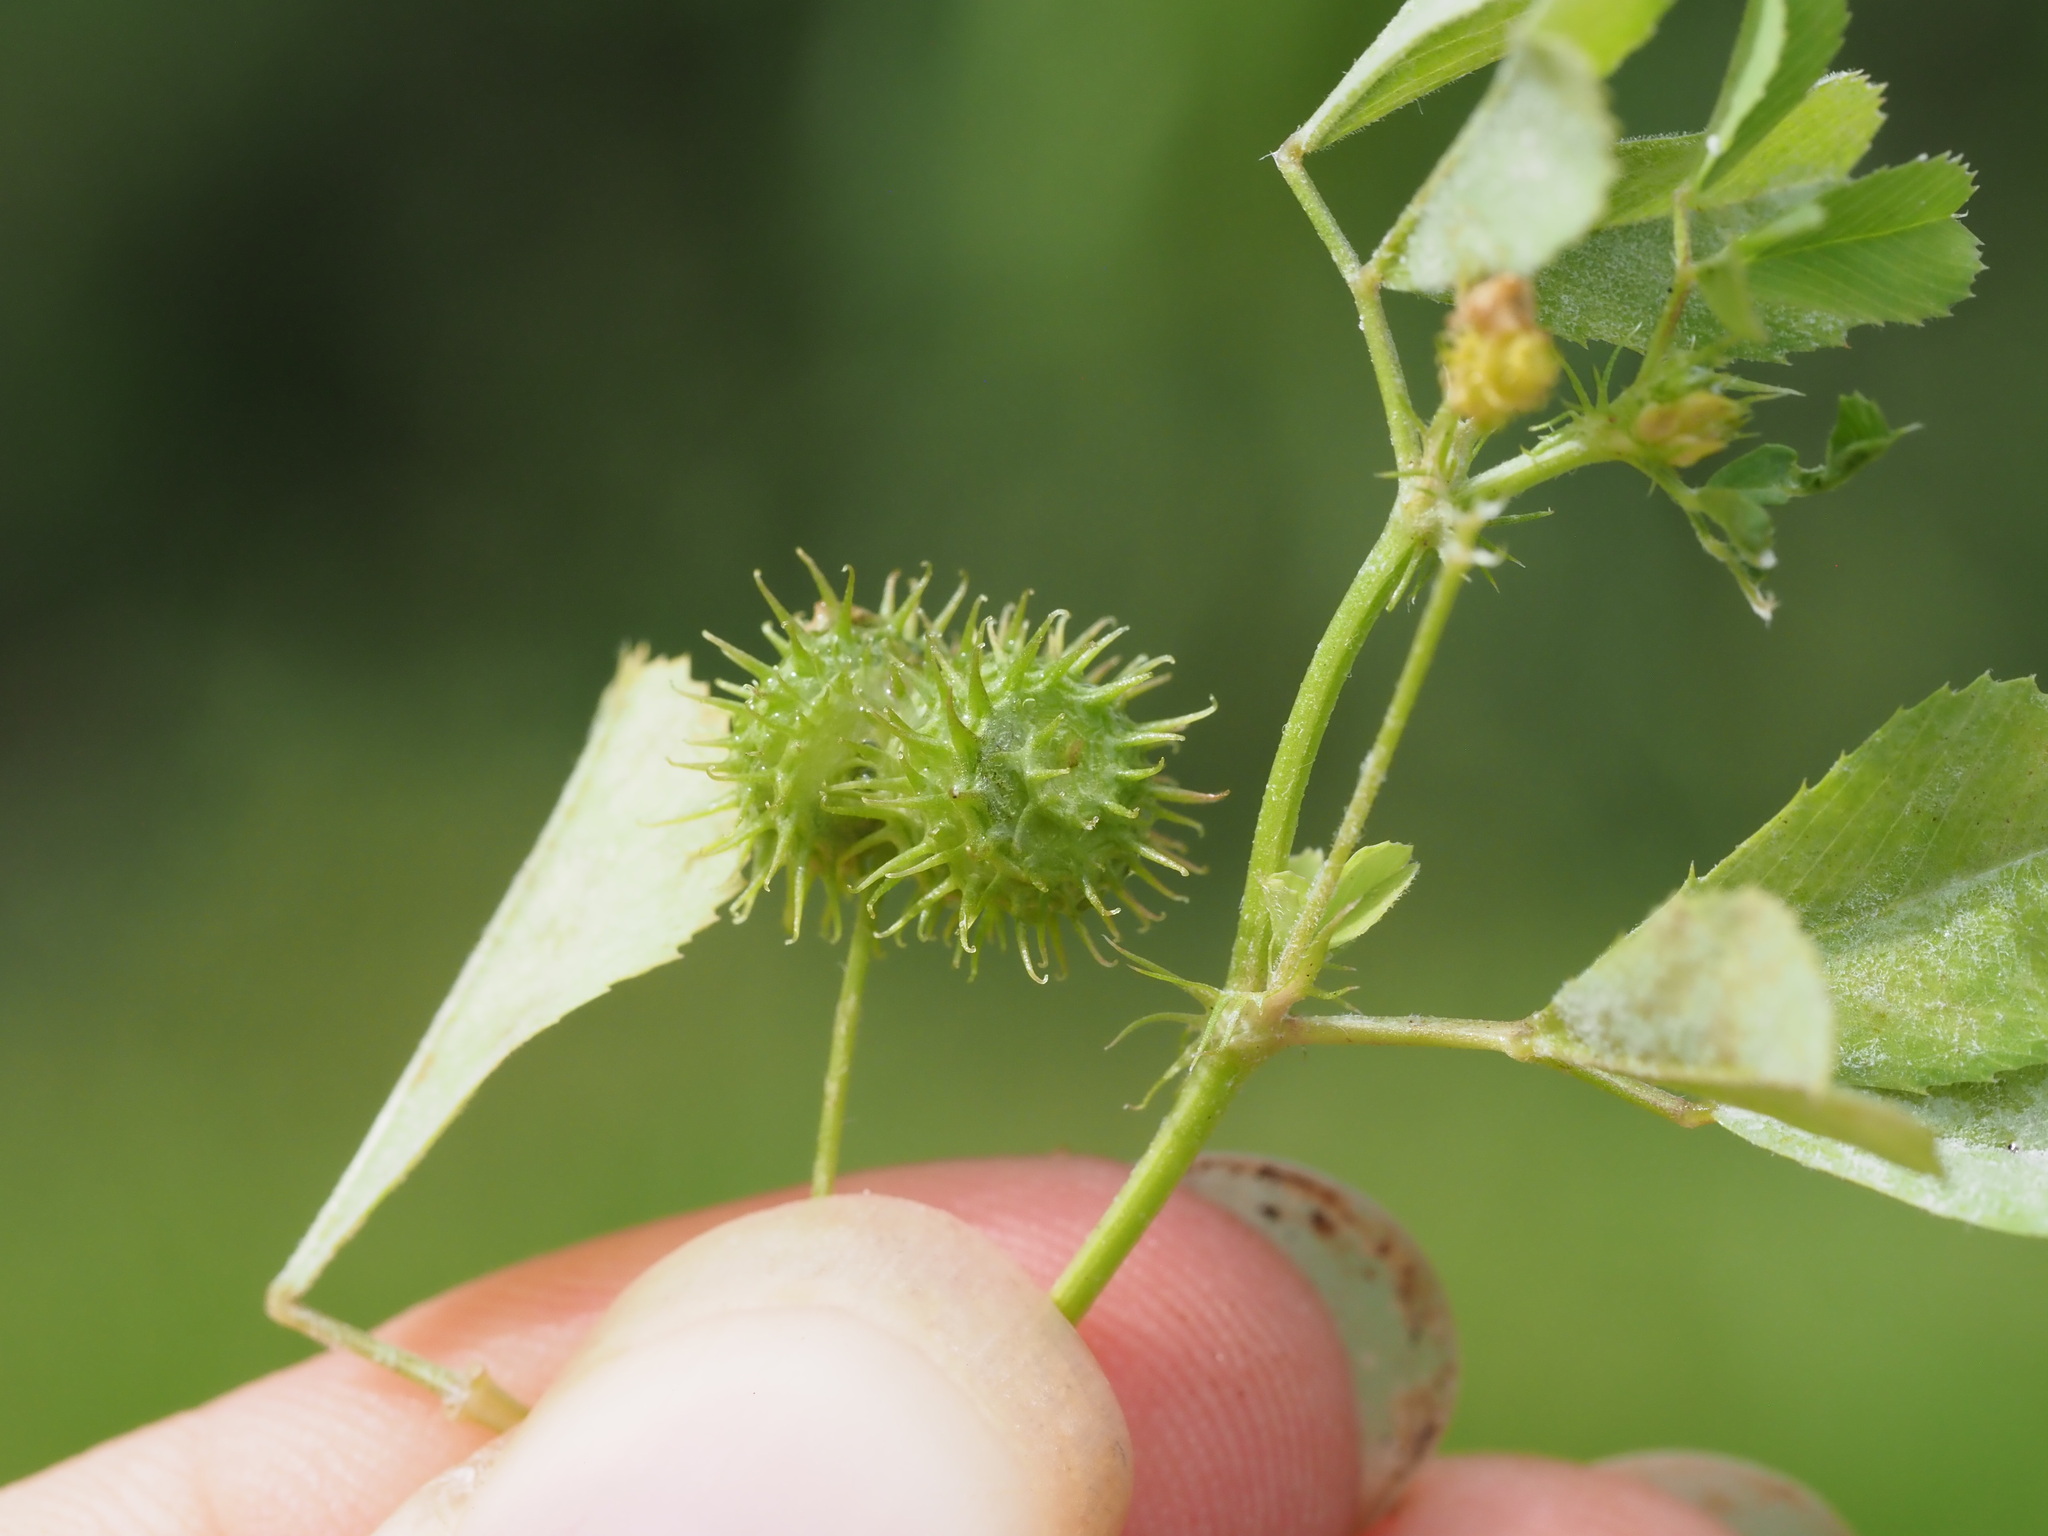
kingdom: Plantae
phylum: Tracheophyta
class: Magnoliopsida
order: Fabales
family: Fabaceae
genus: Medicago
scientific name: Medicago polymorpha
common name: Burclover
